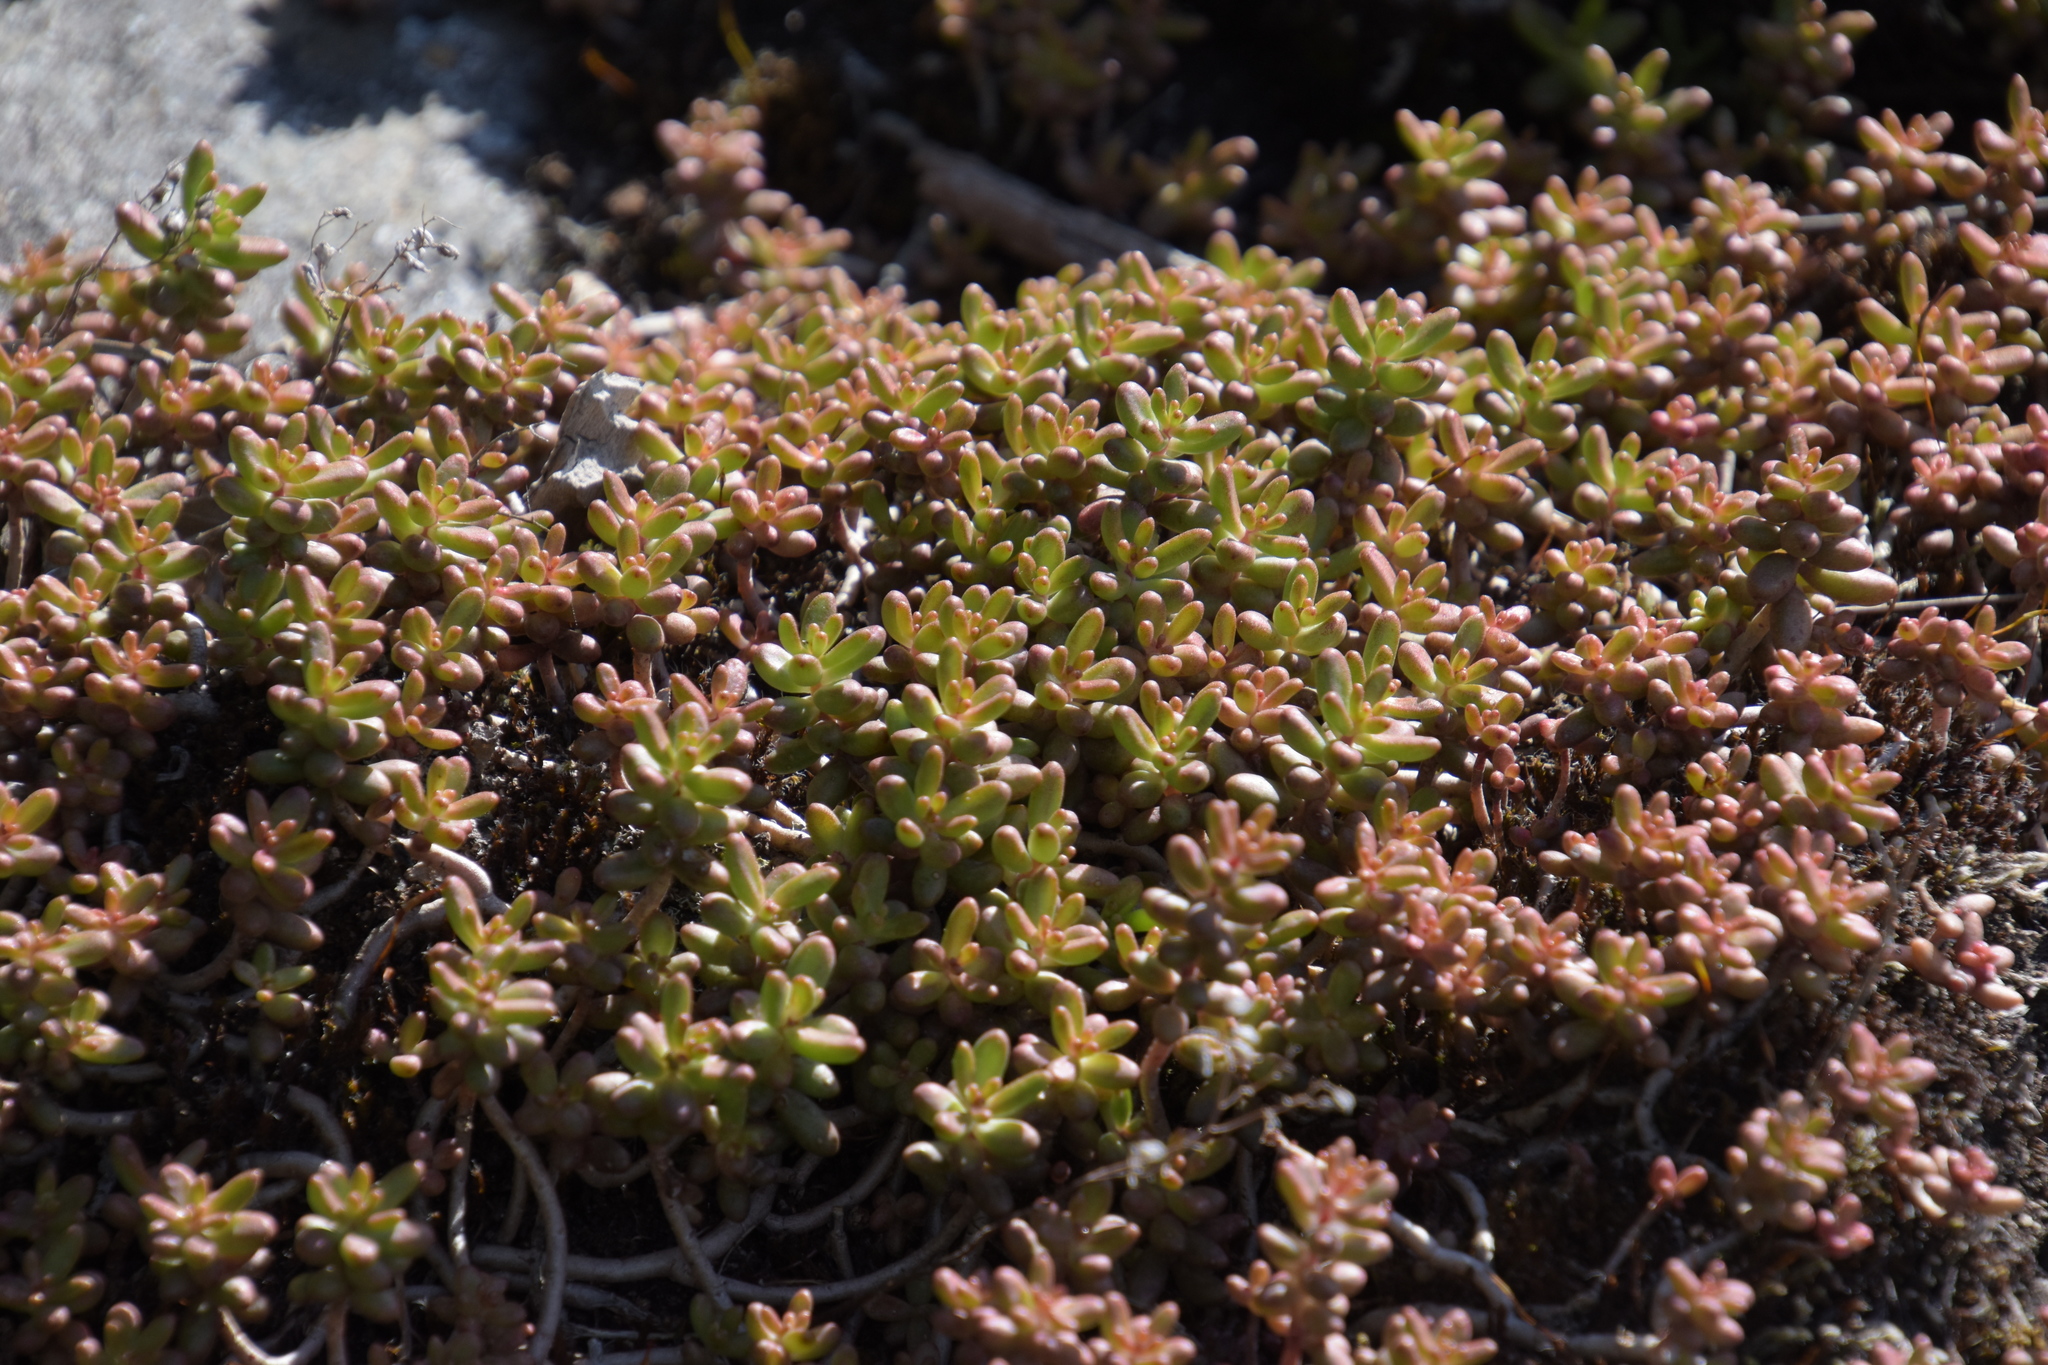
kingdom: Plantae
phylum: Tracheophyta
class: Magnoliopsida
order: Saxifragales
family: Crassulaceae
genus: Sedum
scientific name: Sedum album
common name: White stonecrop
